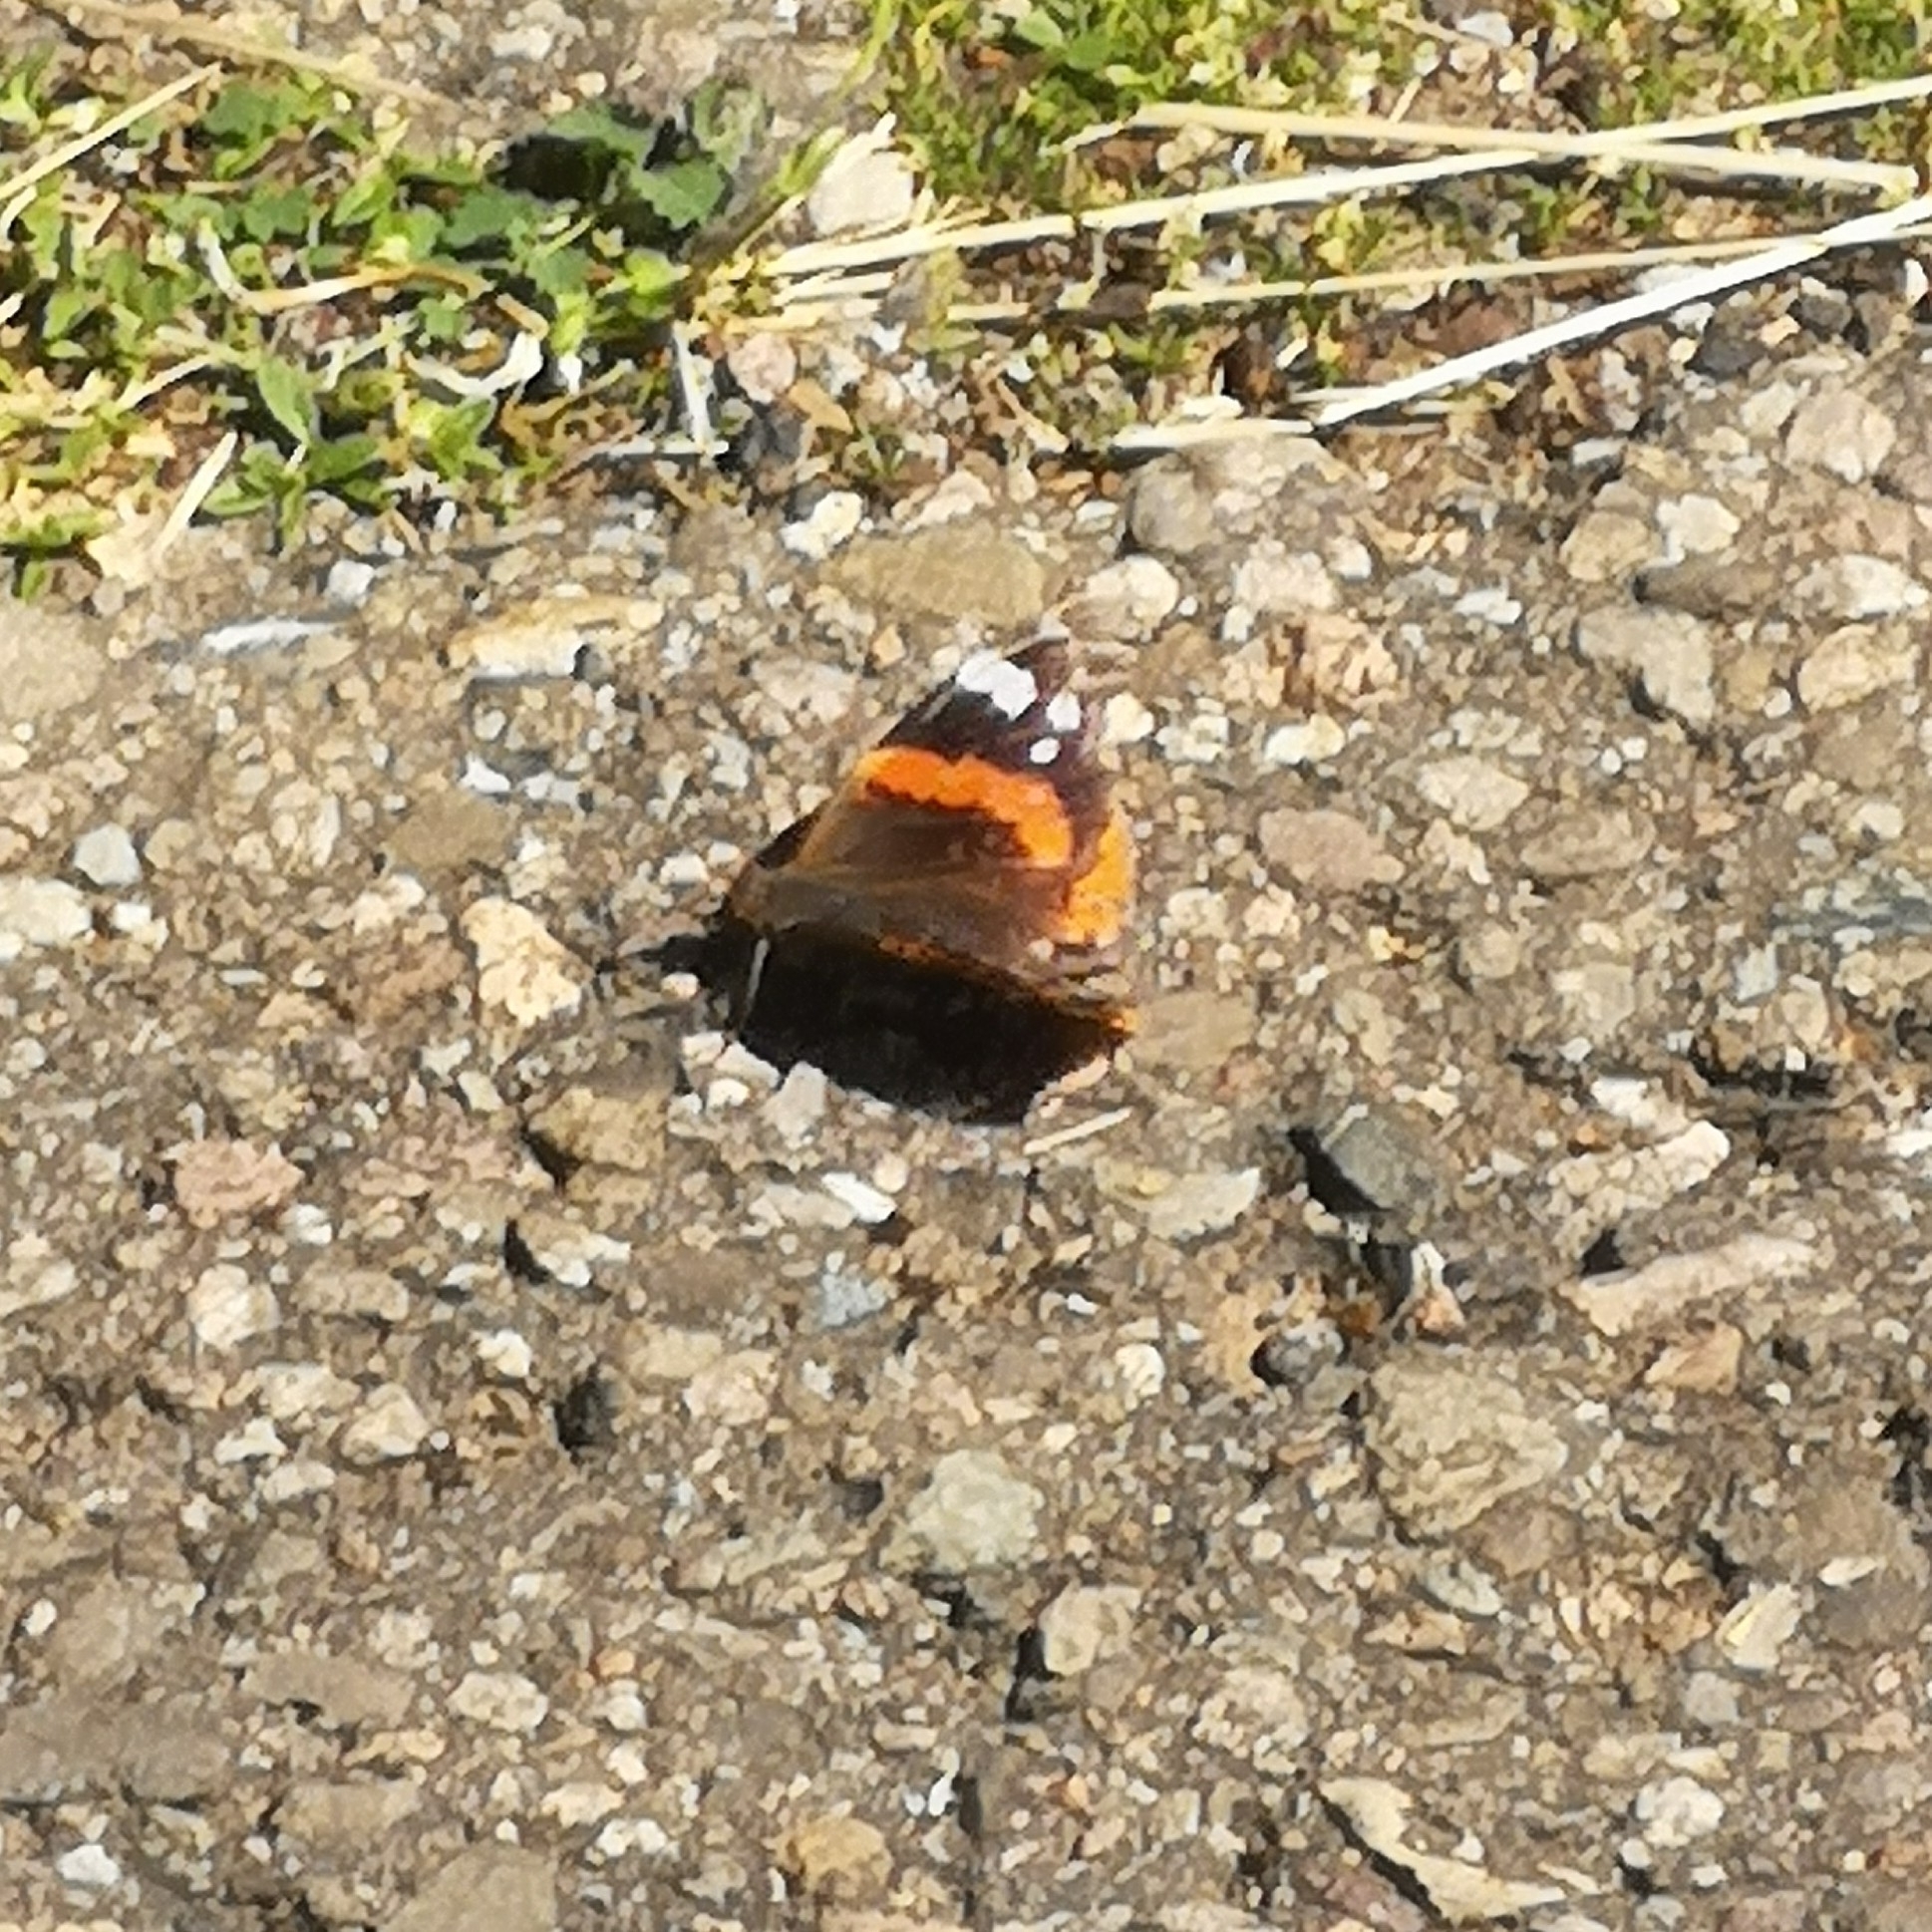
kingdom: Animalia
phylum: Arthropoda
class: Insecta
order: Lepidoptera
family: Nymphalidae
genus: Vanessa
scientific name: Vanessa atalanta
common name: Red admiral
